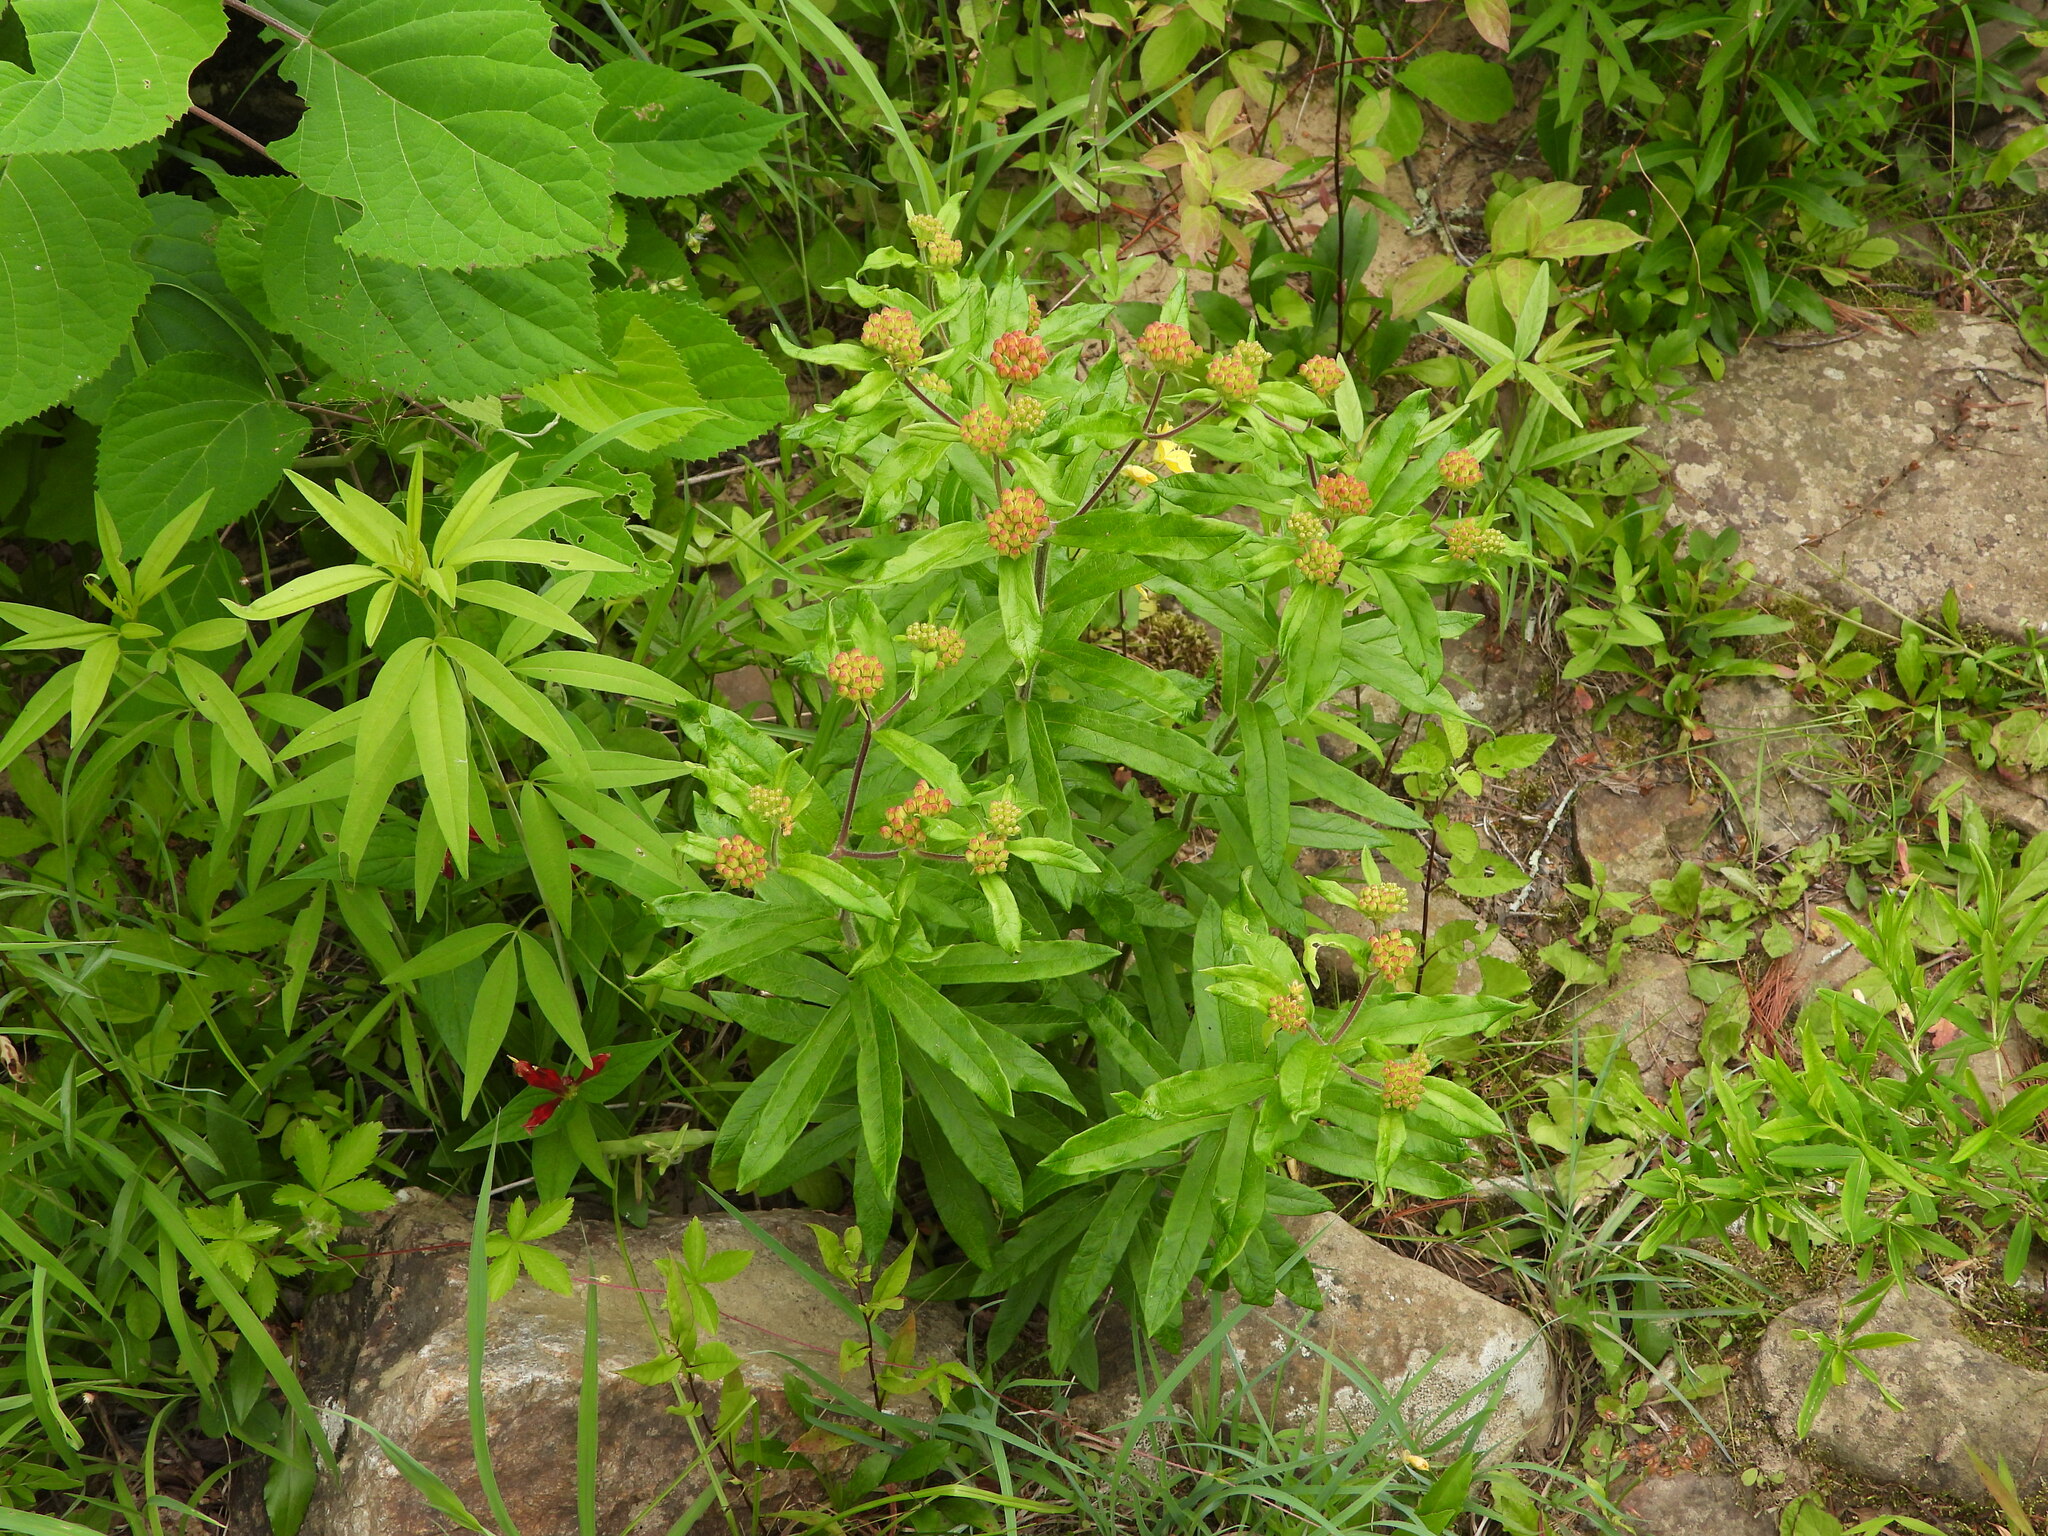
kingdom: Plantae
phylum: Tracheophyta
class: Magnoliopsida
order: Gentianales
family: Apocynaceae
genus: Asclepias
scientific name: Asclepias tuberosa
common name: Butterfly milkweed
